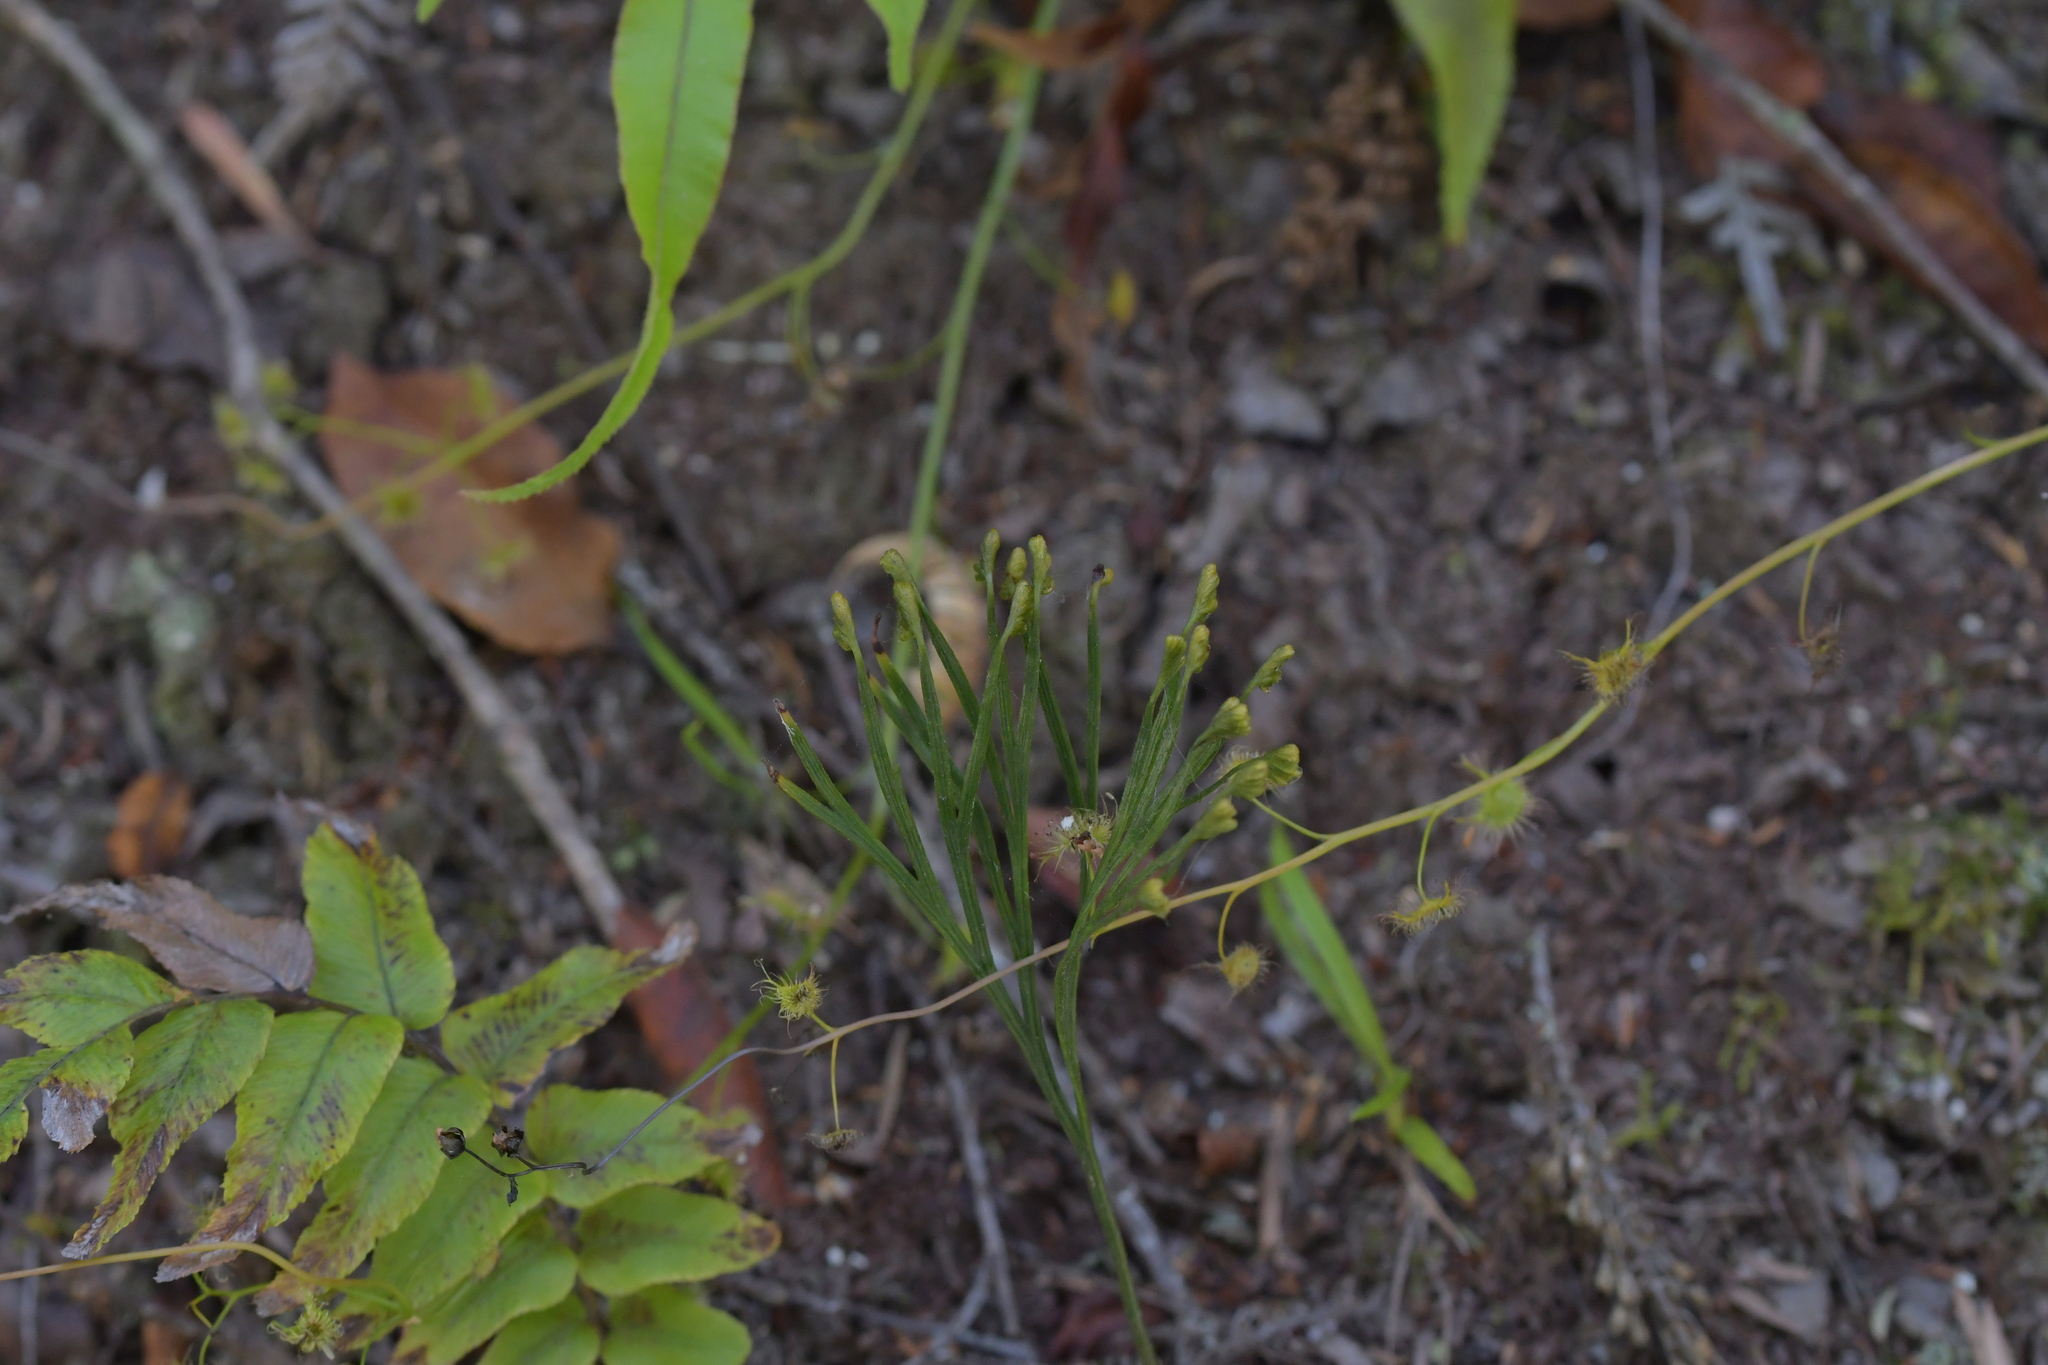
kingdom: Plantae
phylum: Tracheophyta
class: Polypodiopsida
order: Schizaeales
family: Schizaeaceae
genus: Schizaea
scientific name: Schizaea dichotoma
